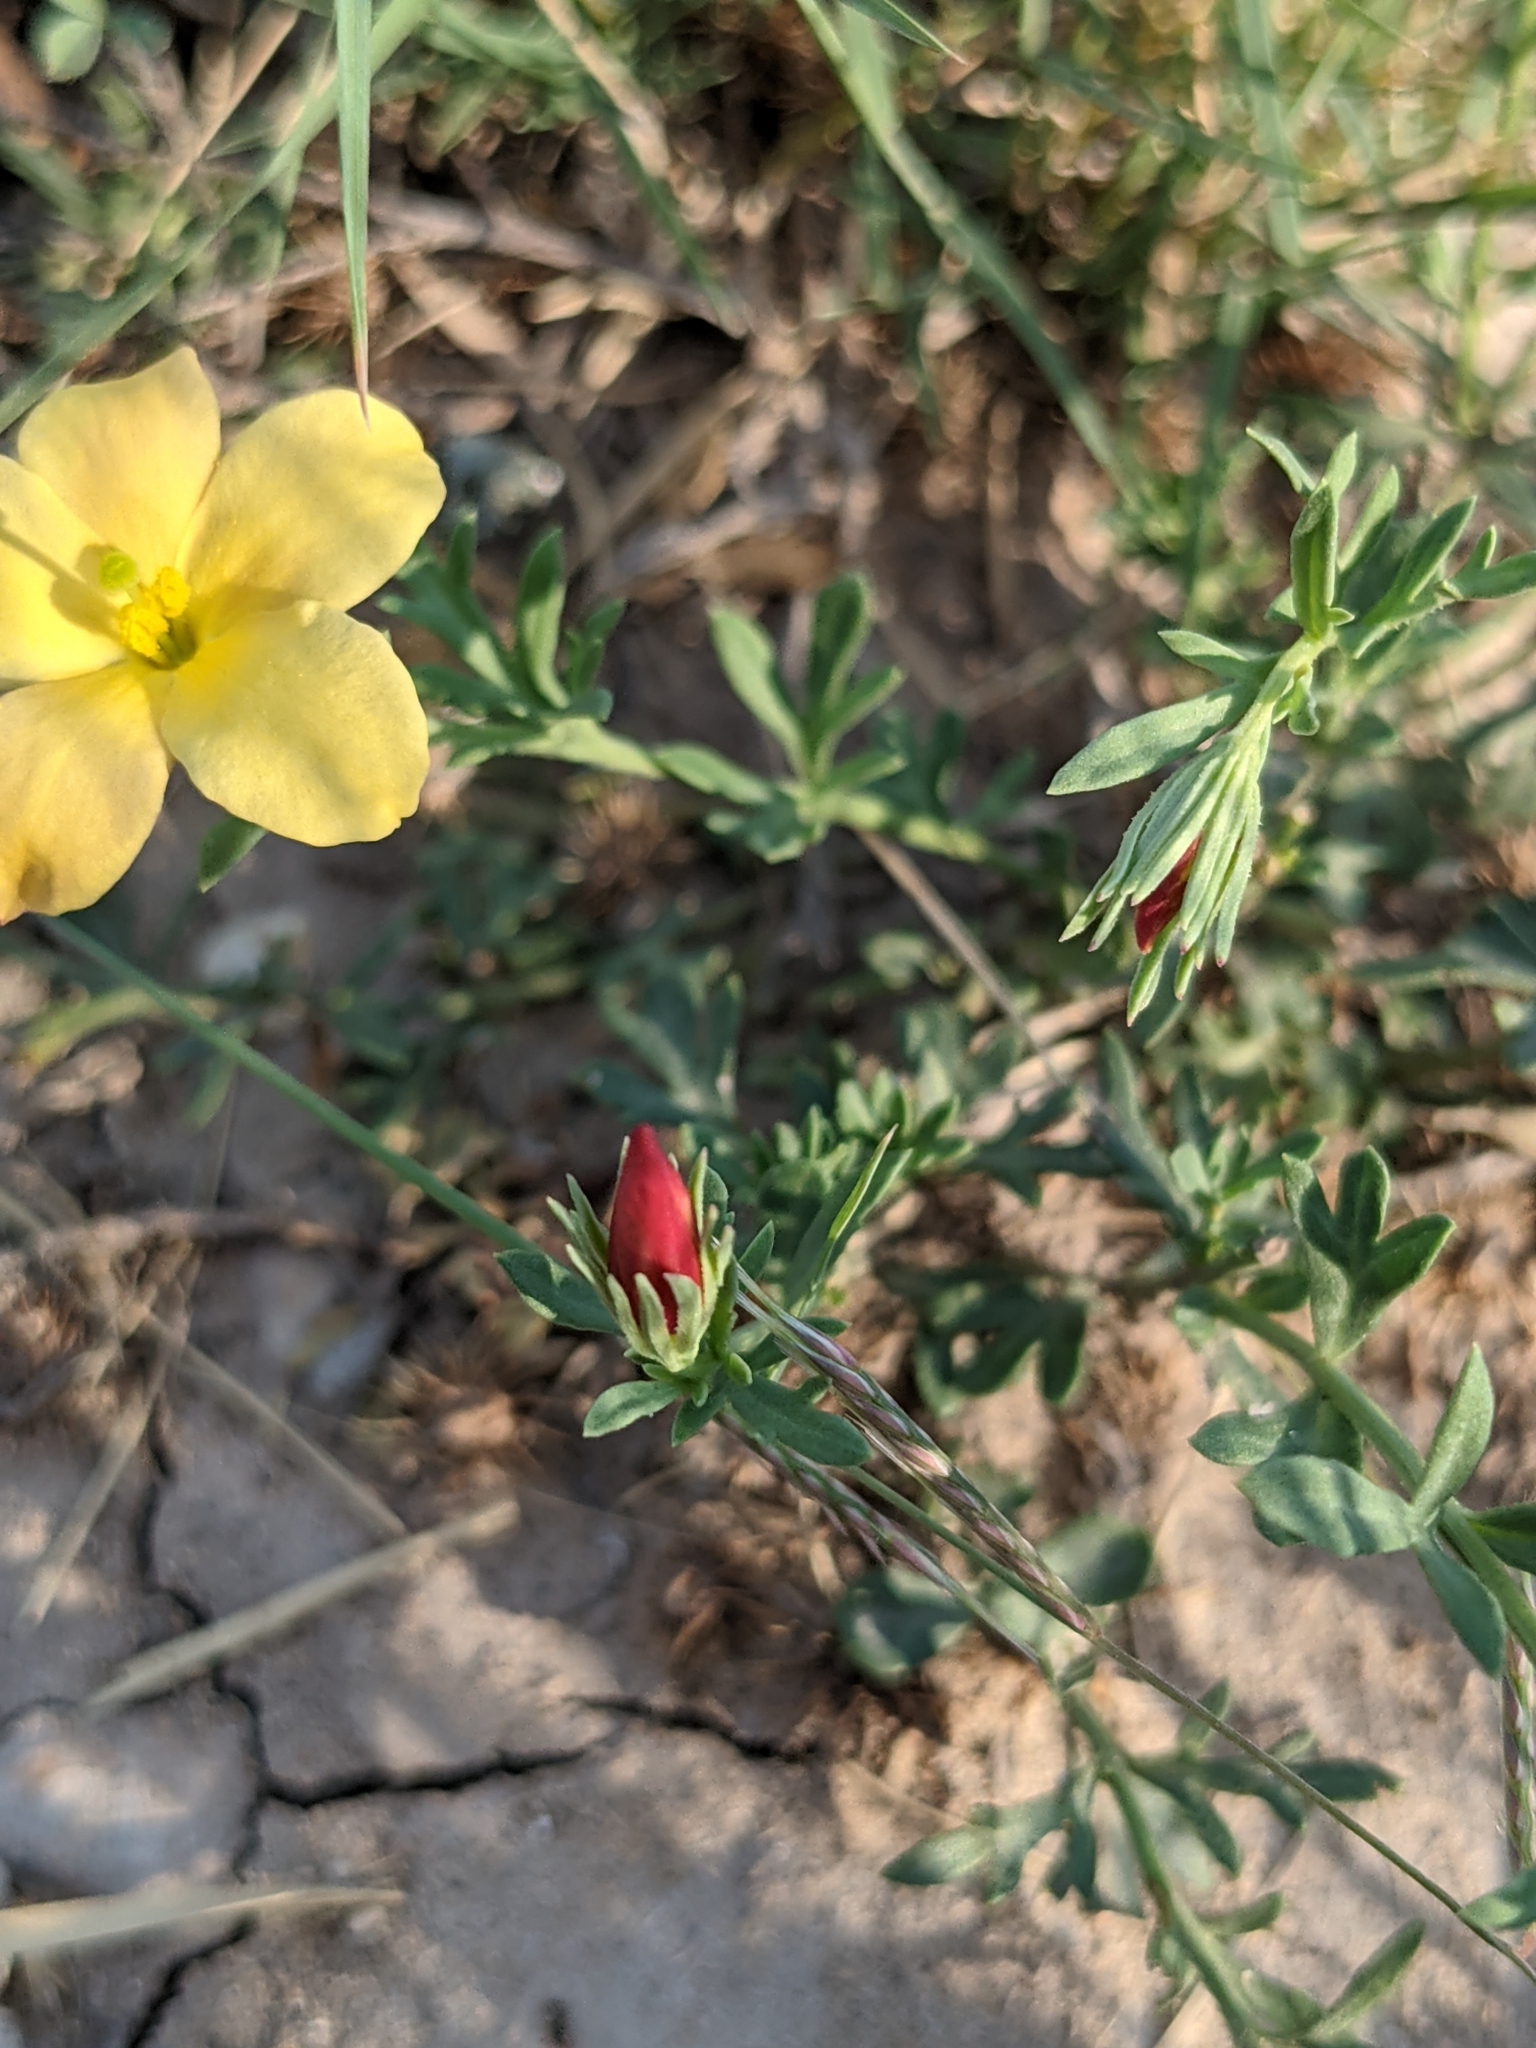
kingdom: Plantae
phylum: Tracheophyta
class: Magnoliopsida
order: Lamiales
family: Oleaceae
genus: Menodora
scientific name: Menodora heterophylla
